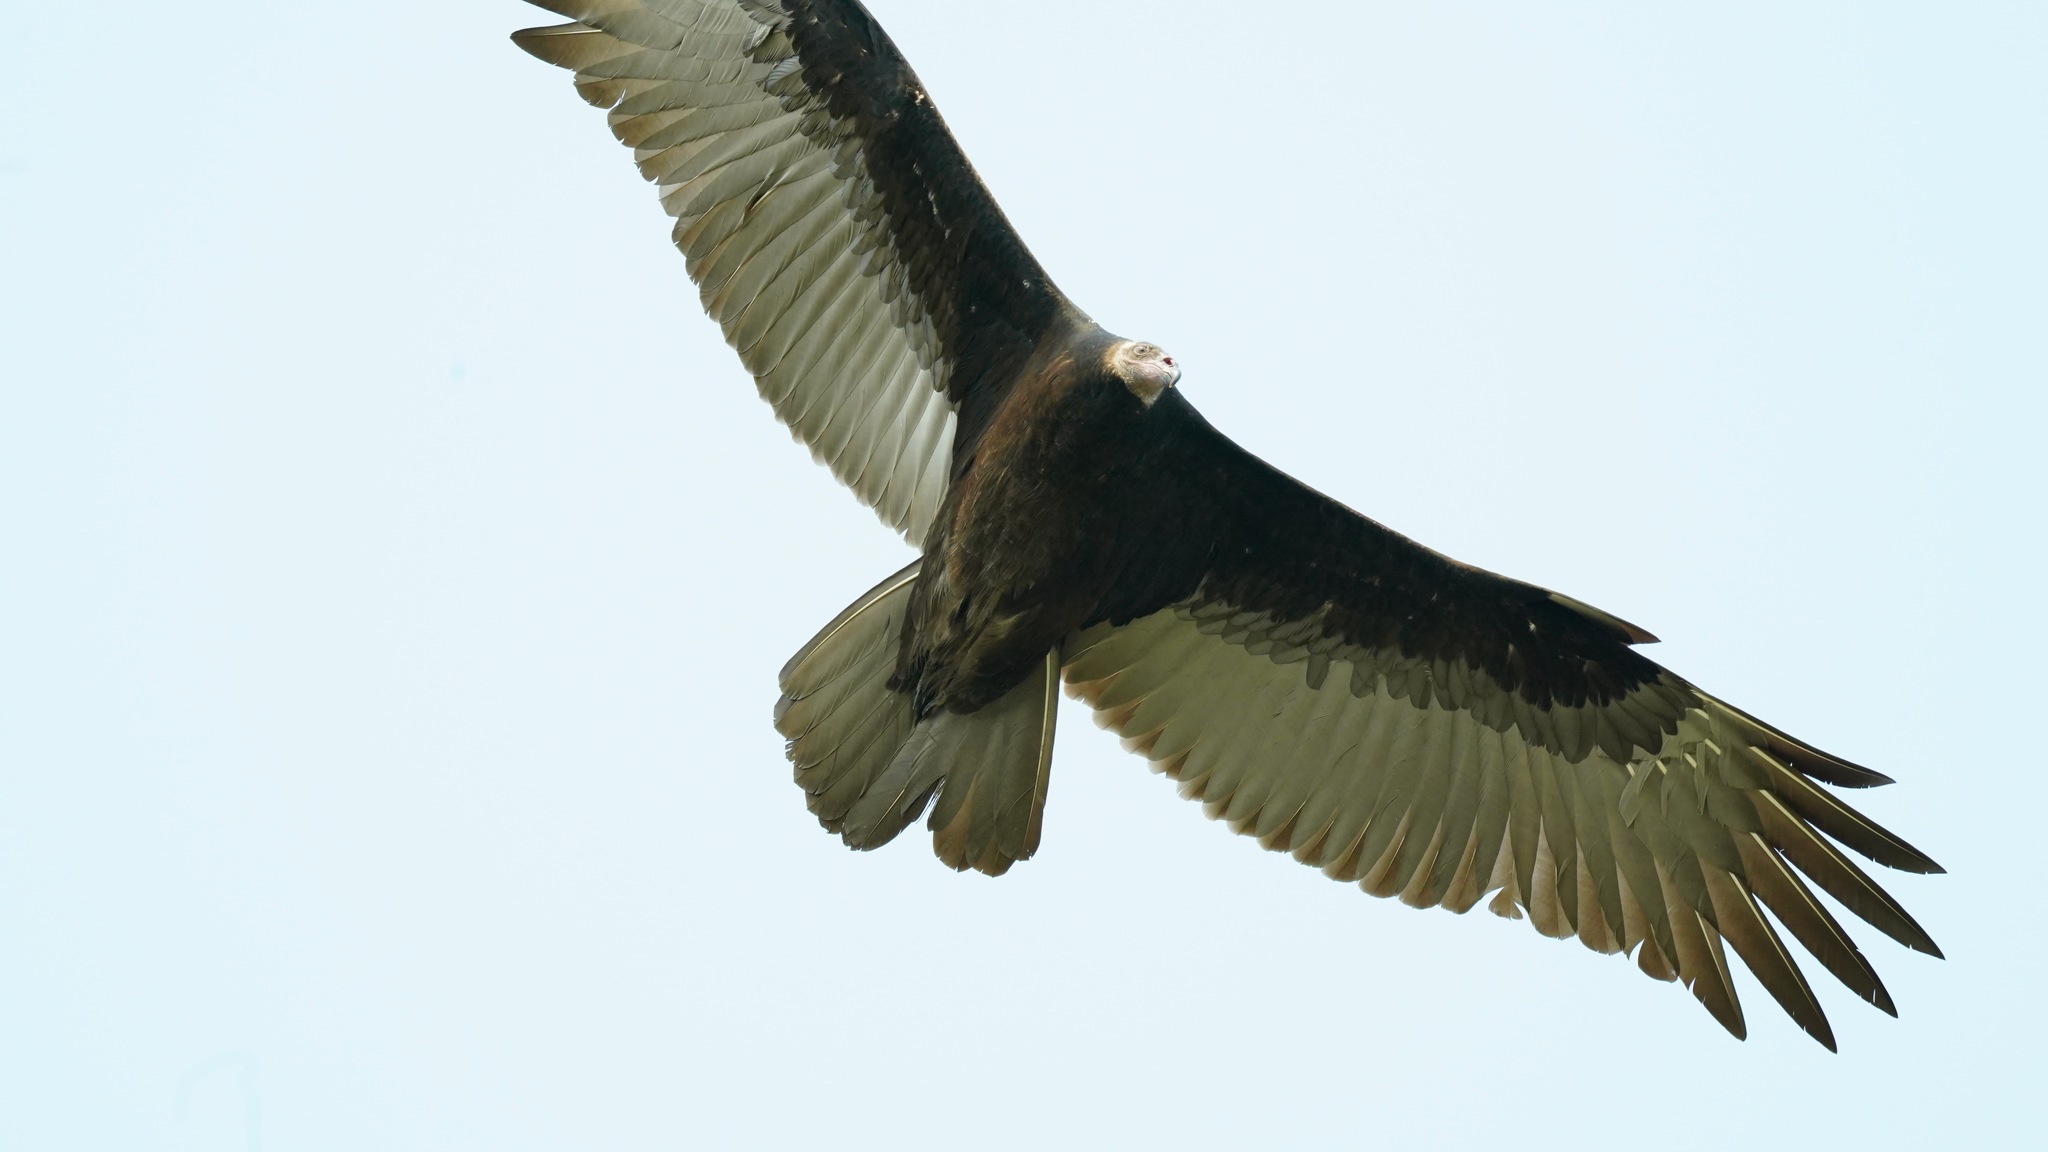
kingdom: Animalia
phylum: Chordata
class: Aves
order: Accipitriformes
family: Cathartidae
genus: Cathartes
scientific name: Cathartes aura
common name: Turkey vulture
